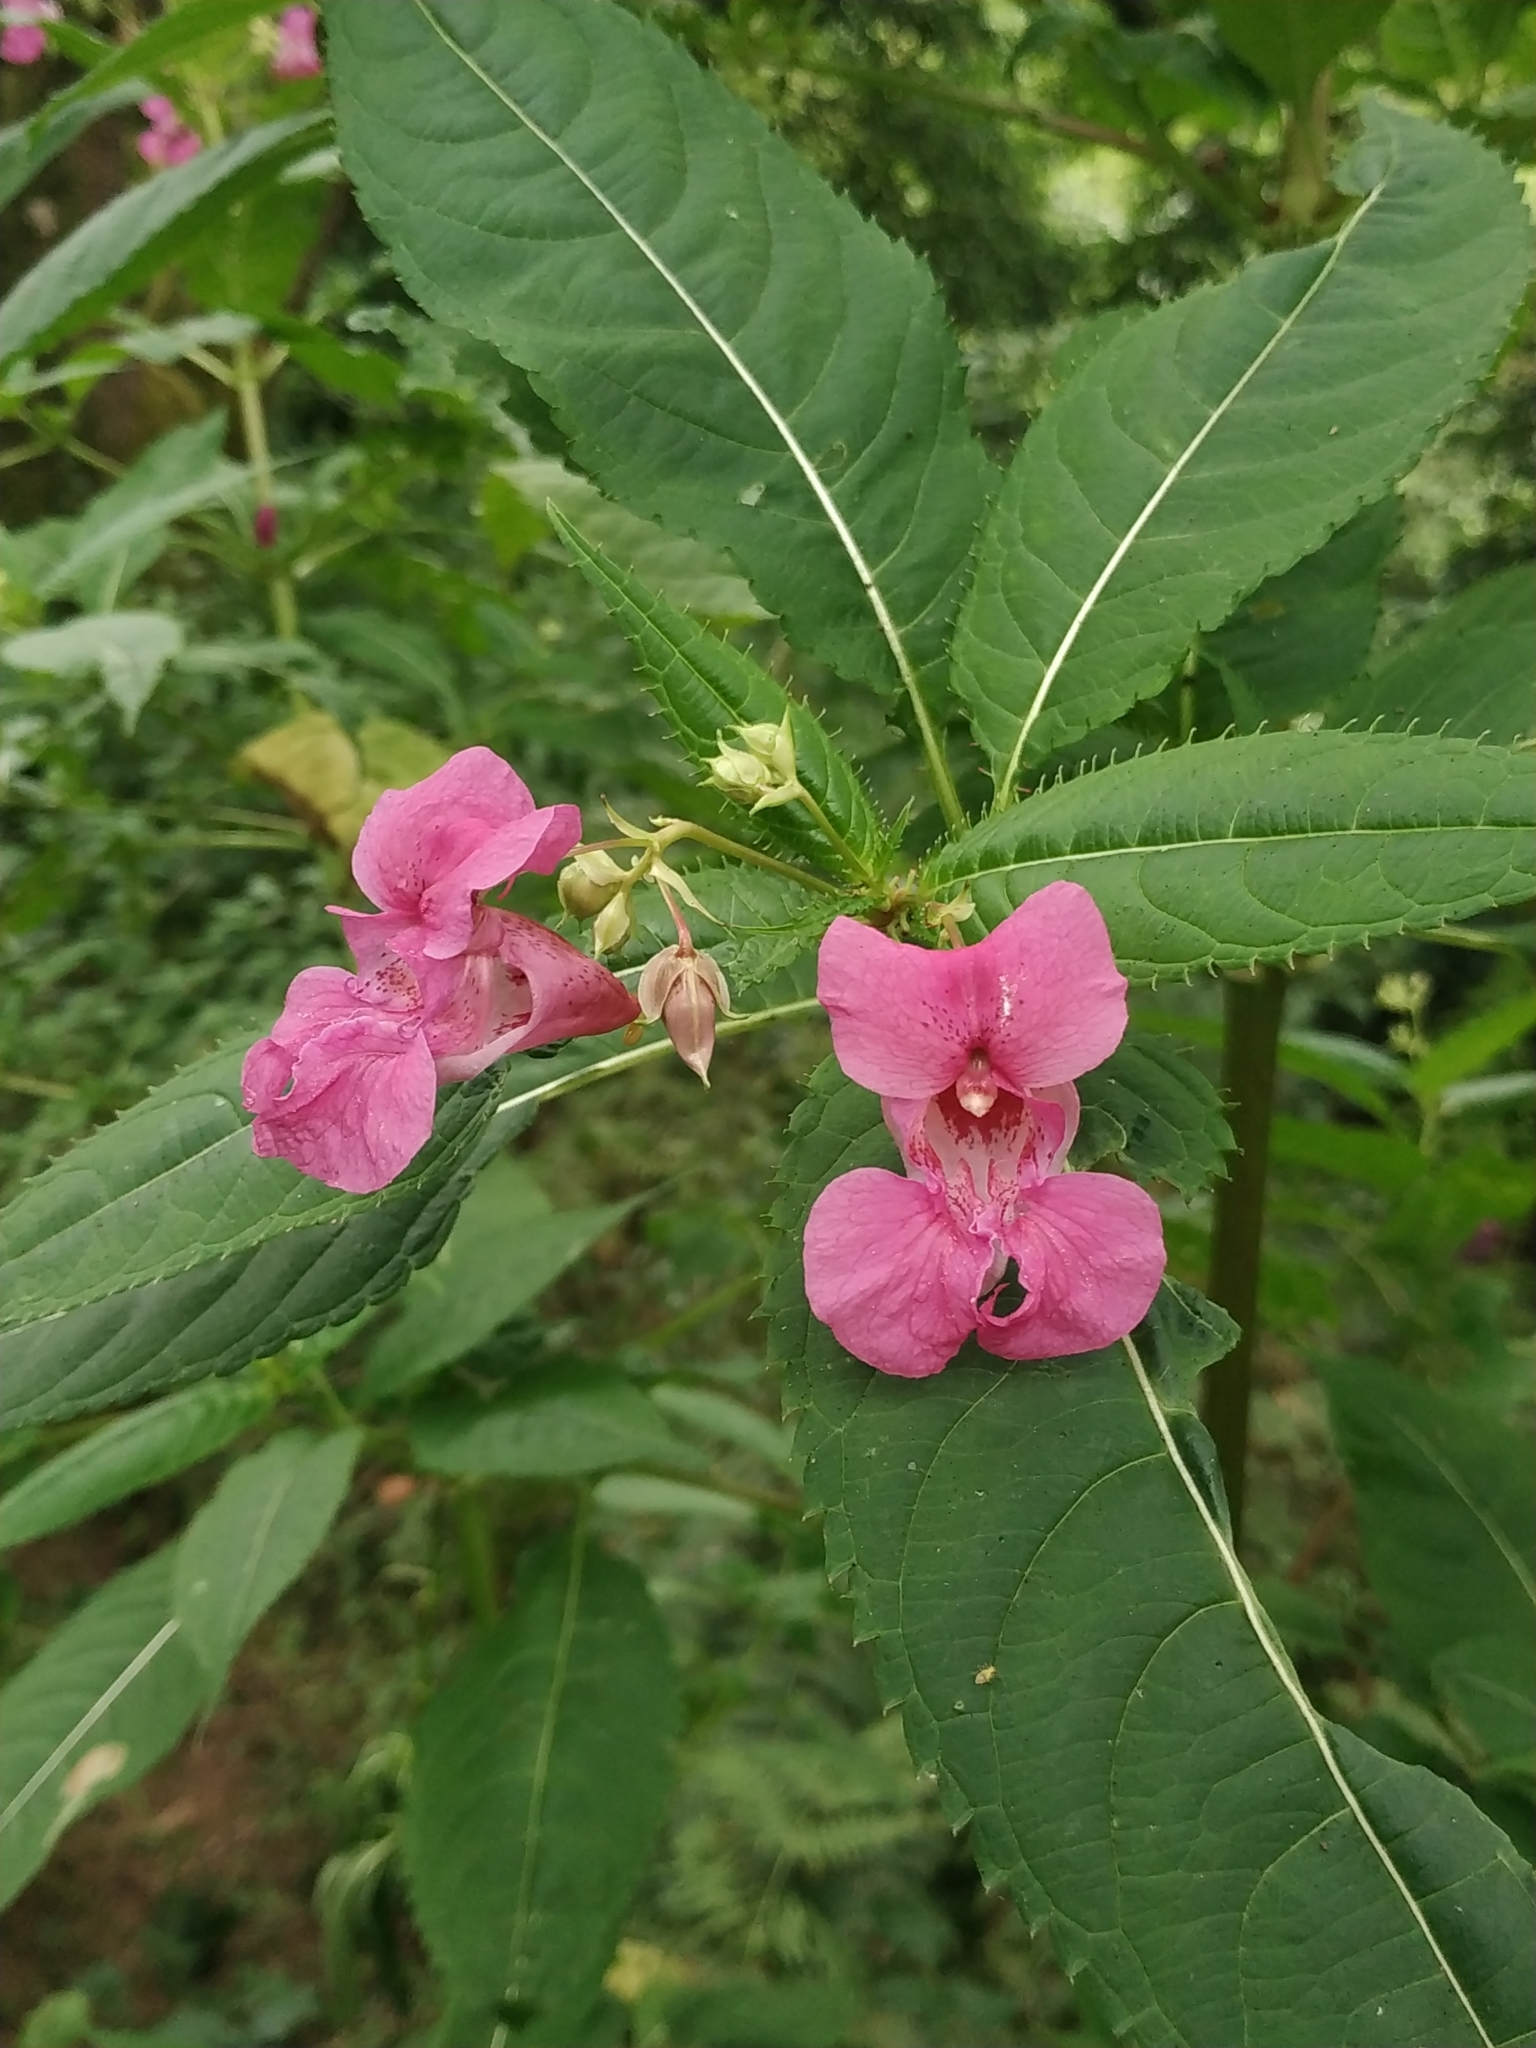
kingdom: Plantae
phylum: Tracheophyta
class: Magnoliopsida
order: Ericales
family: Balsaminaceae
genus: Impatiens
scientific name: Impatiens glandulifera
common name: Himalayan balsam
